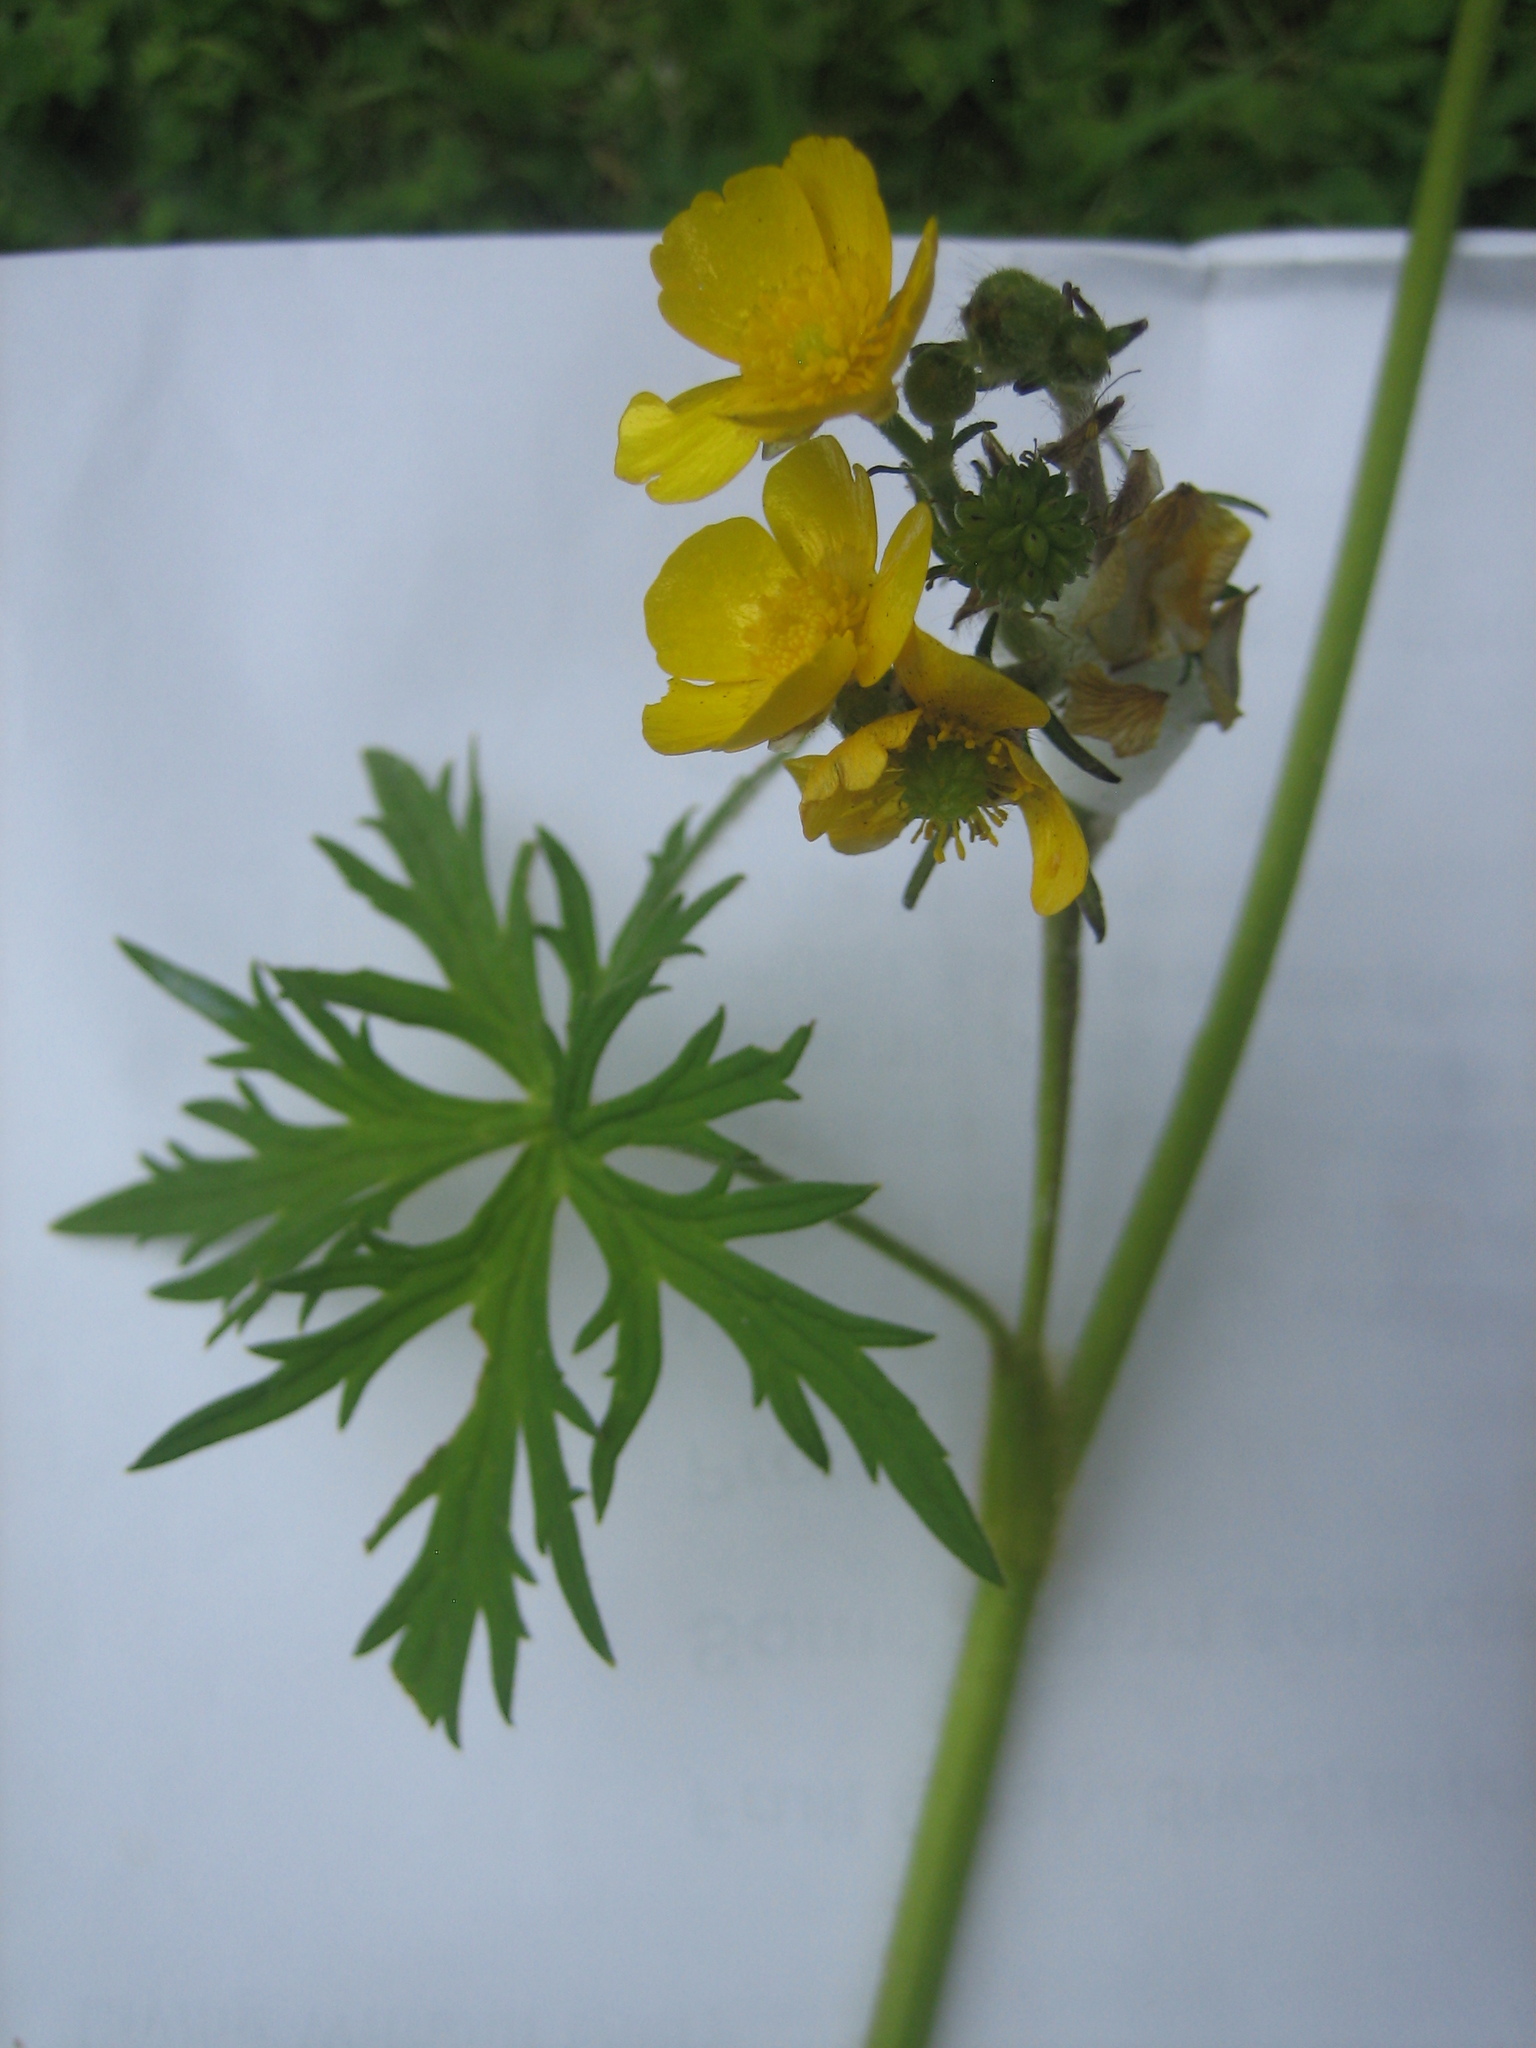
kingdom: Plantae
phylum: Tracheophyta
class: Magnoliopsida
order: Ranunculales
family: Ranunculaceae
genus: Ranunculus
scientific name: Ranunculus acris
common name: Meadow buttercup
